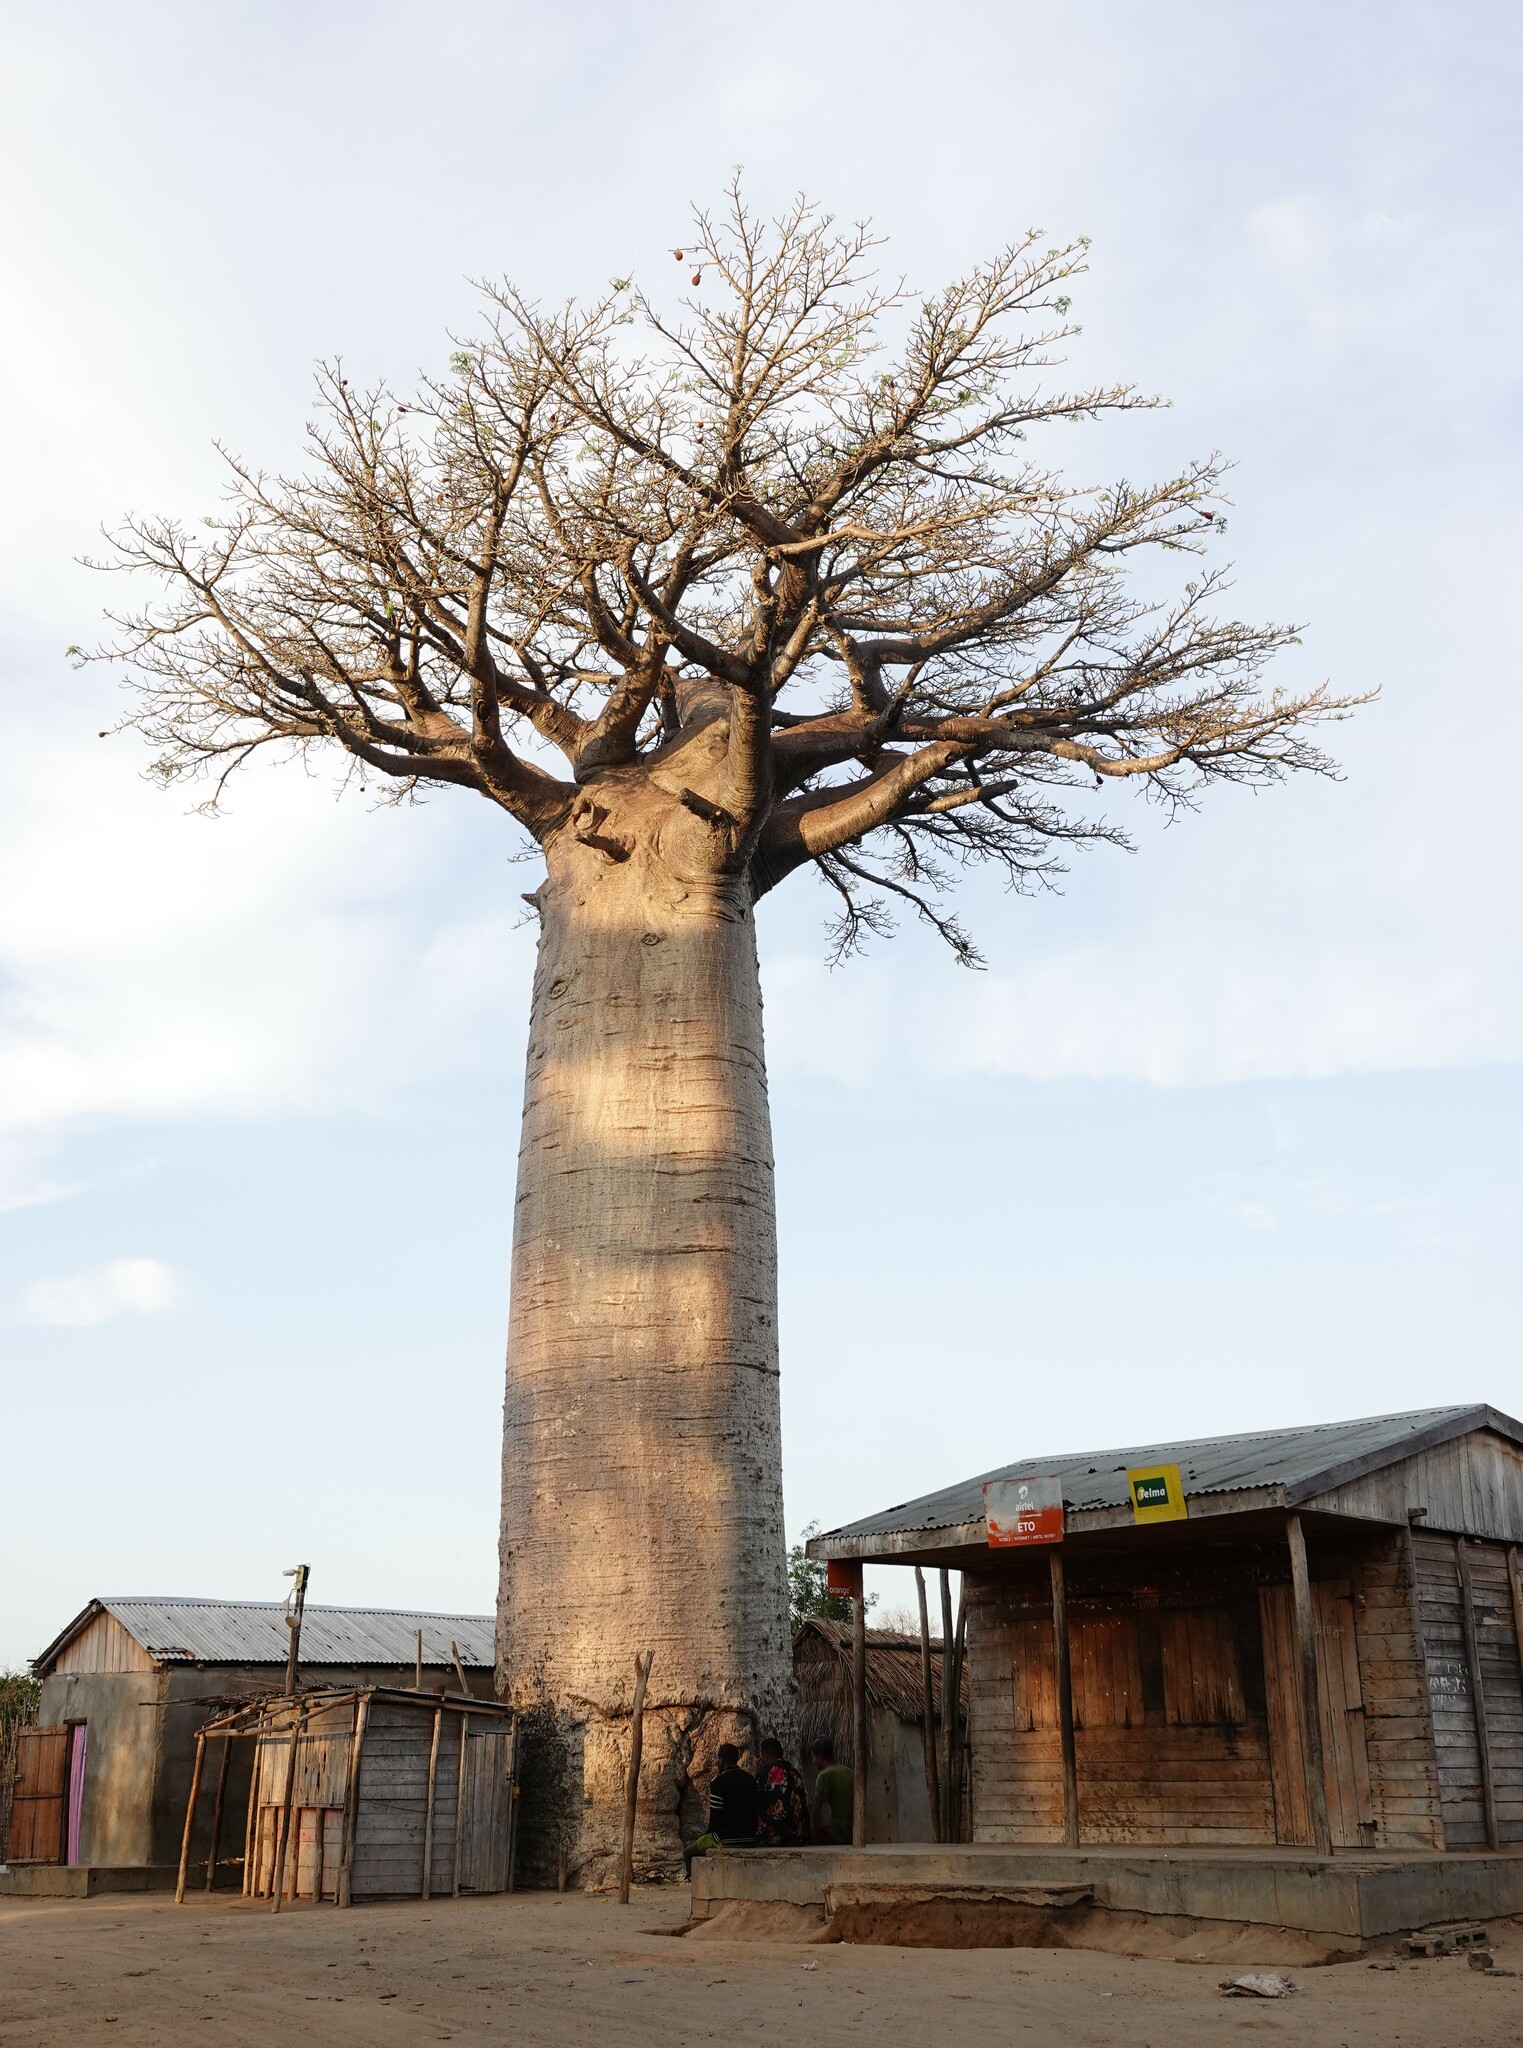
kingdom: Plantae
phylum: Tracheophyta
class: Magnoliopsida
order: Malvales
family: Malvaceae
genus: Adansonia
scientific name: Adansonia grandidieri
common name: Grandidier's baobab
